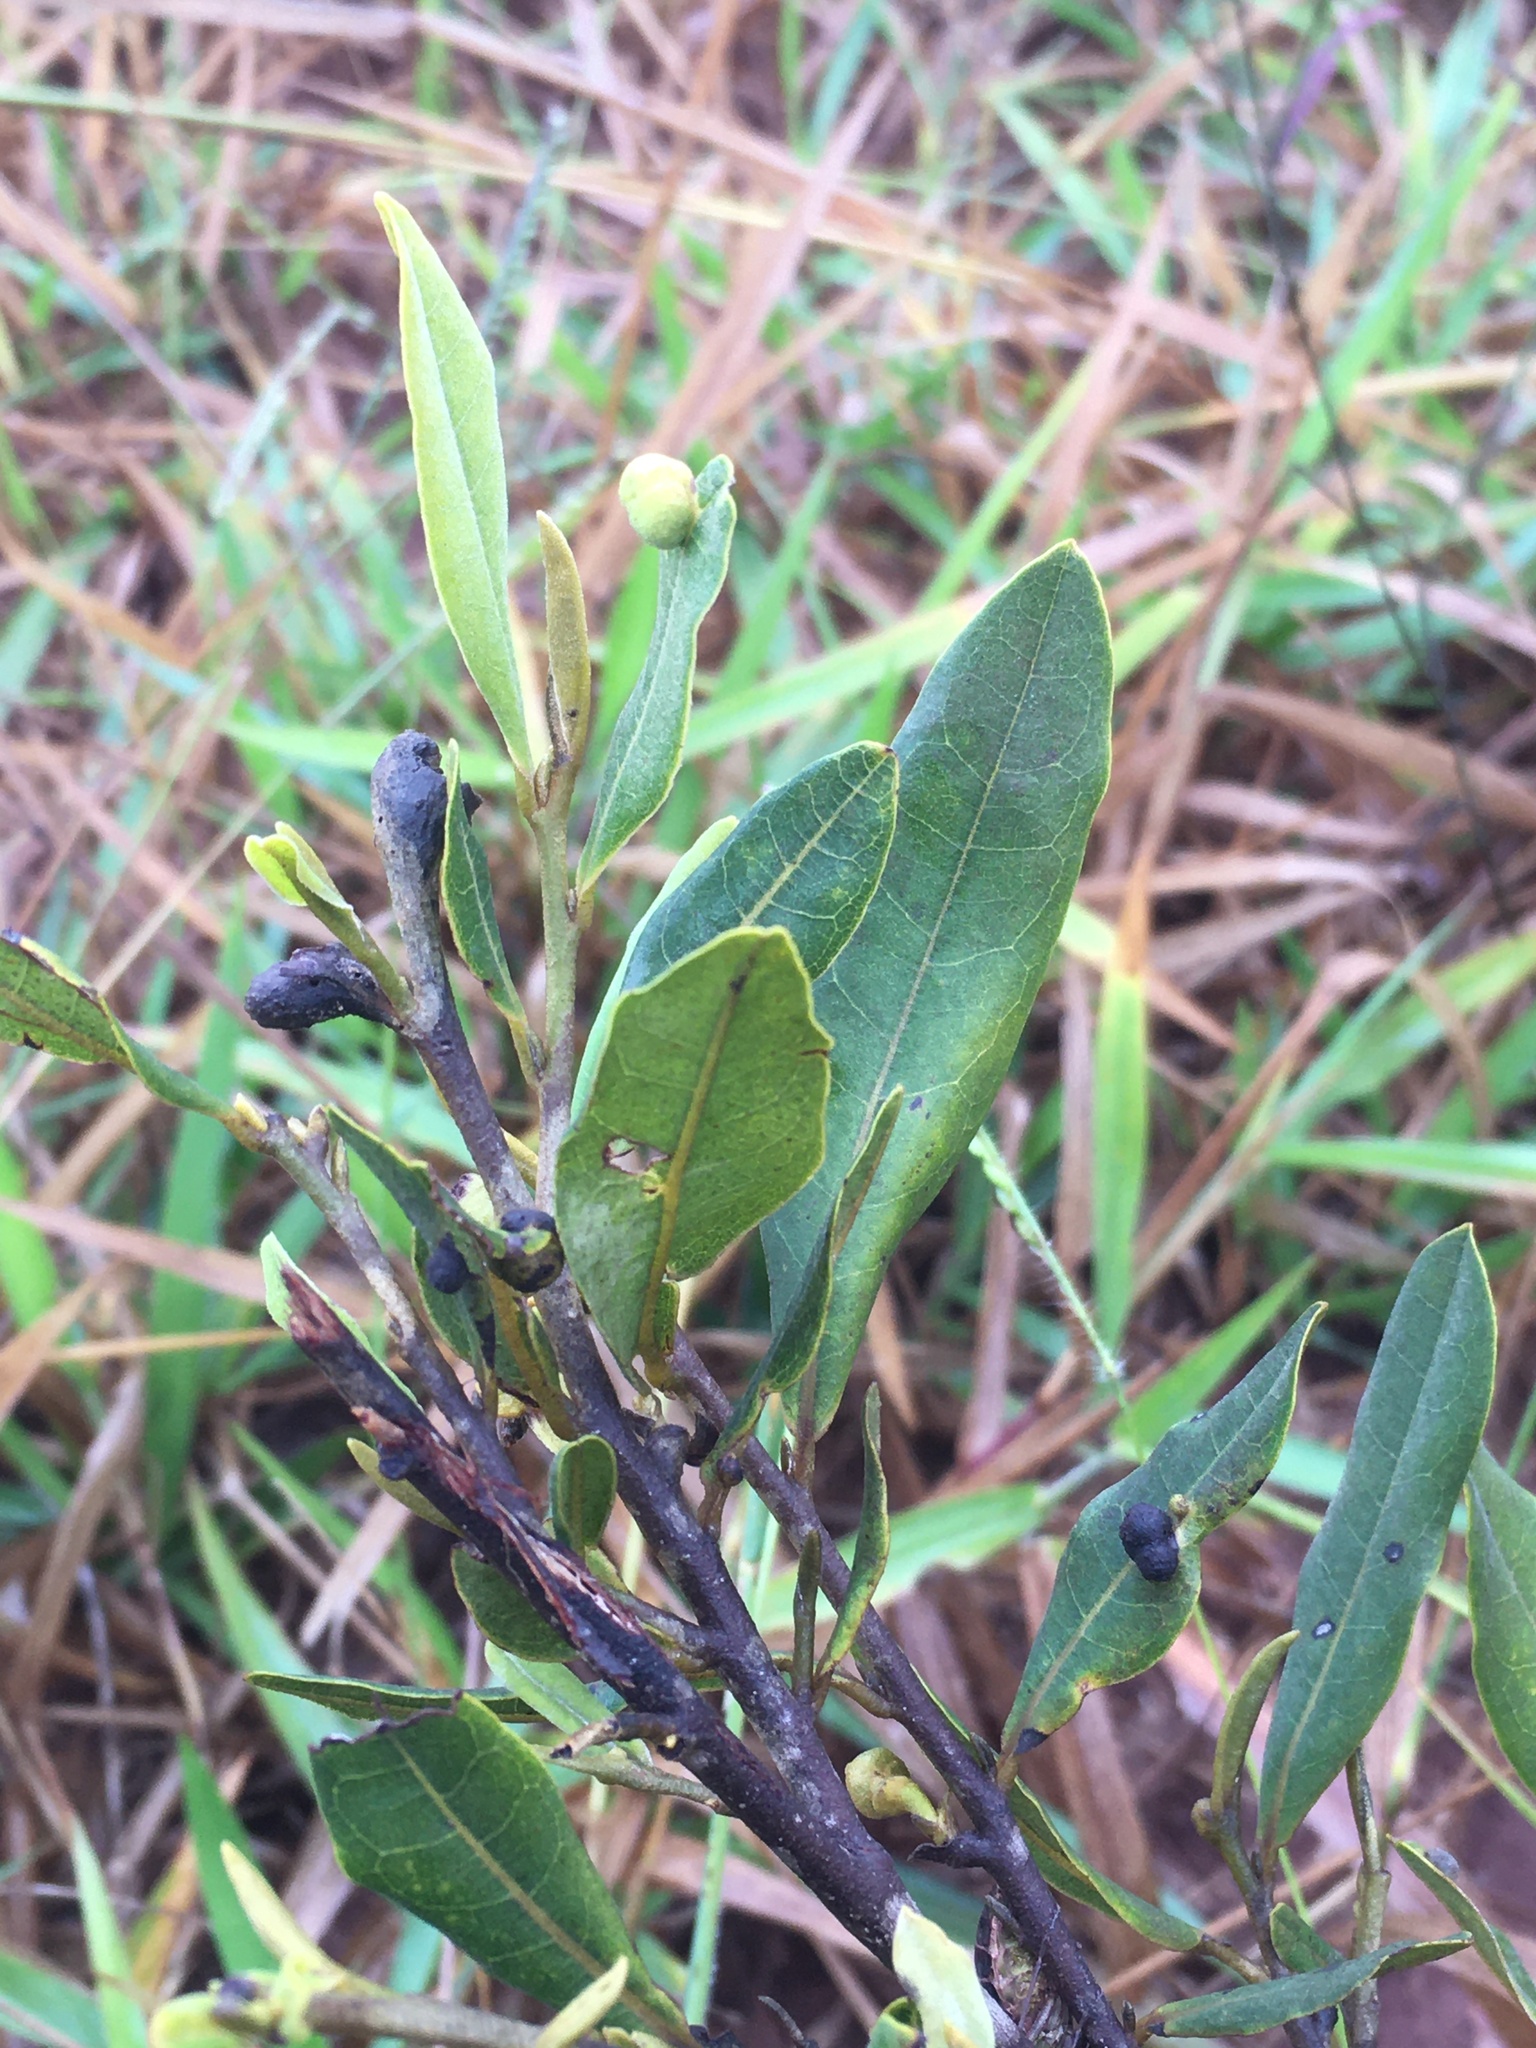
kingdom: Plantae
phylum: Tracheophyta
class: Magnoliopsida
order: Magnoliales
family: Annonaceae
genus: Duguetia
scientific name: Duguetia furfuracea
